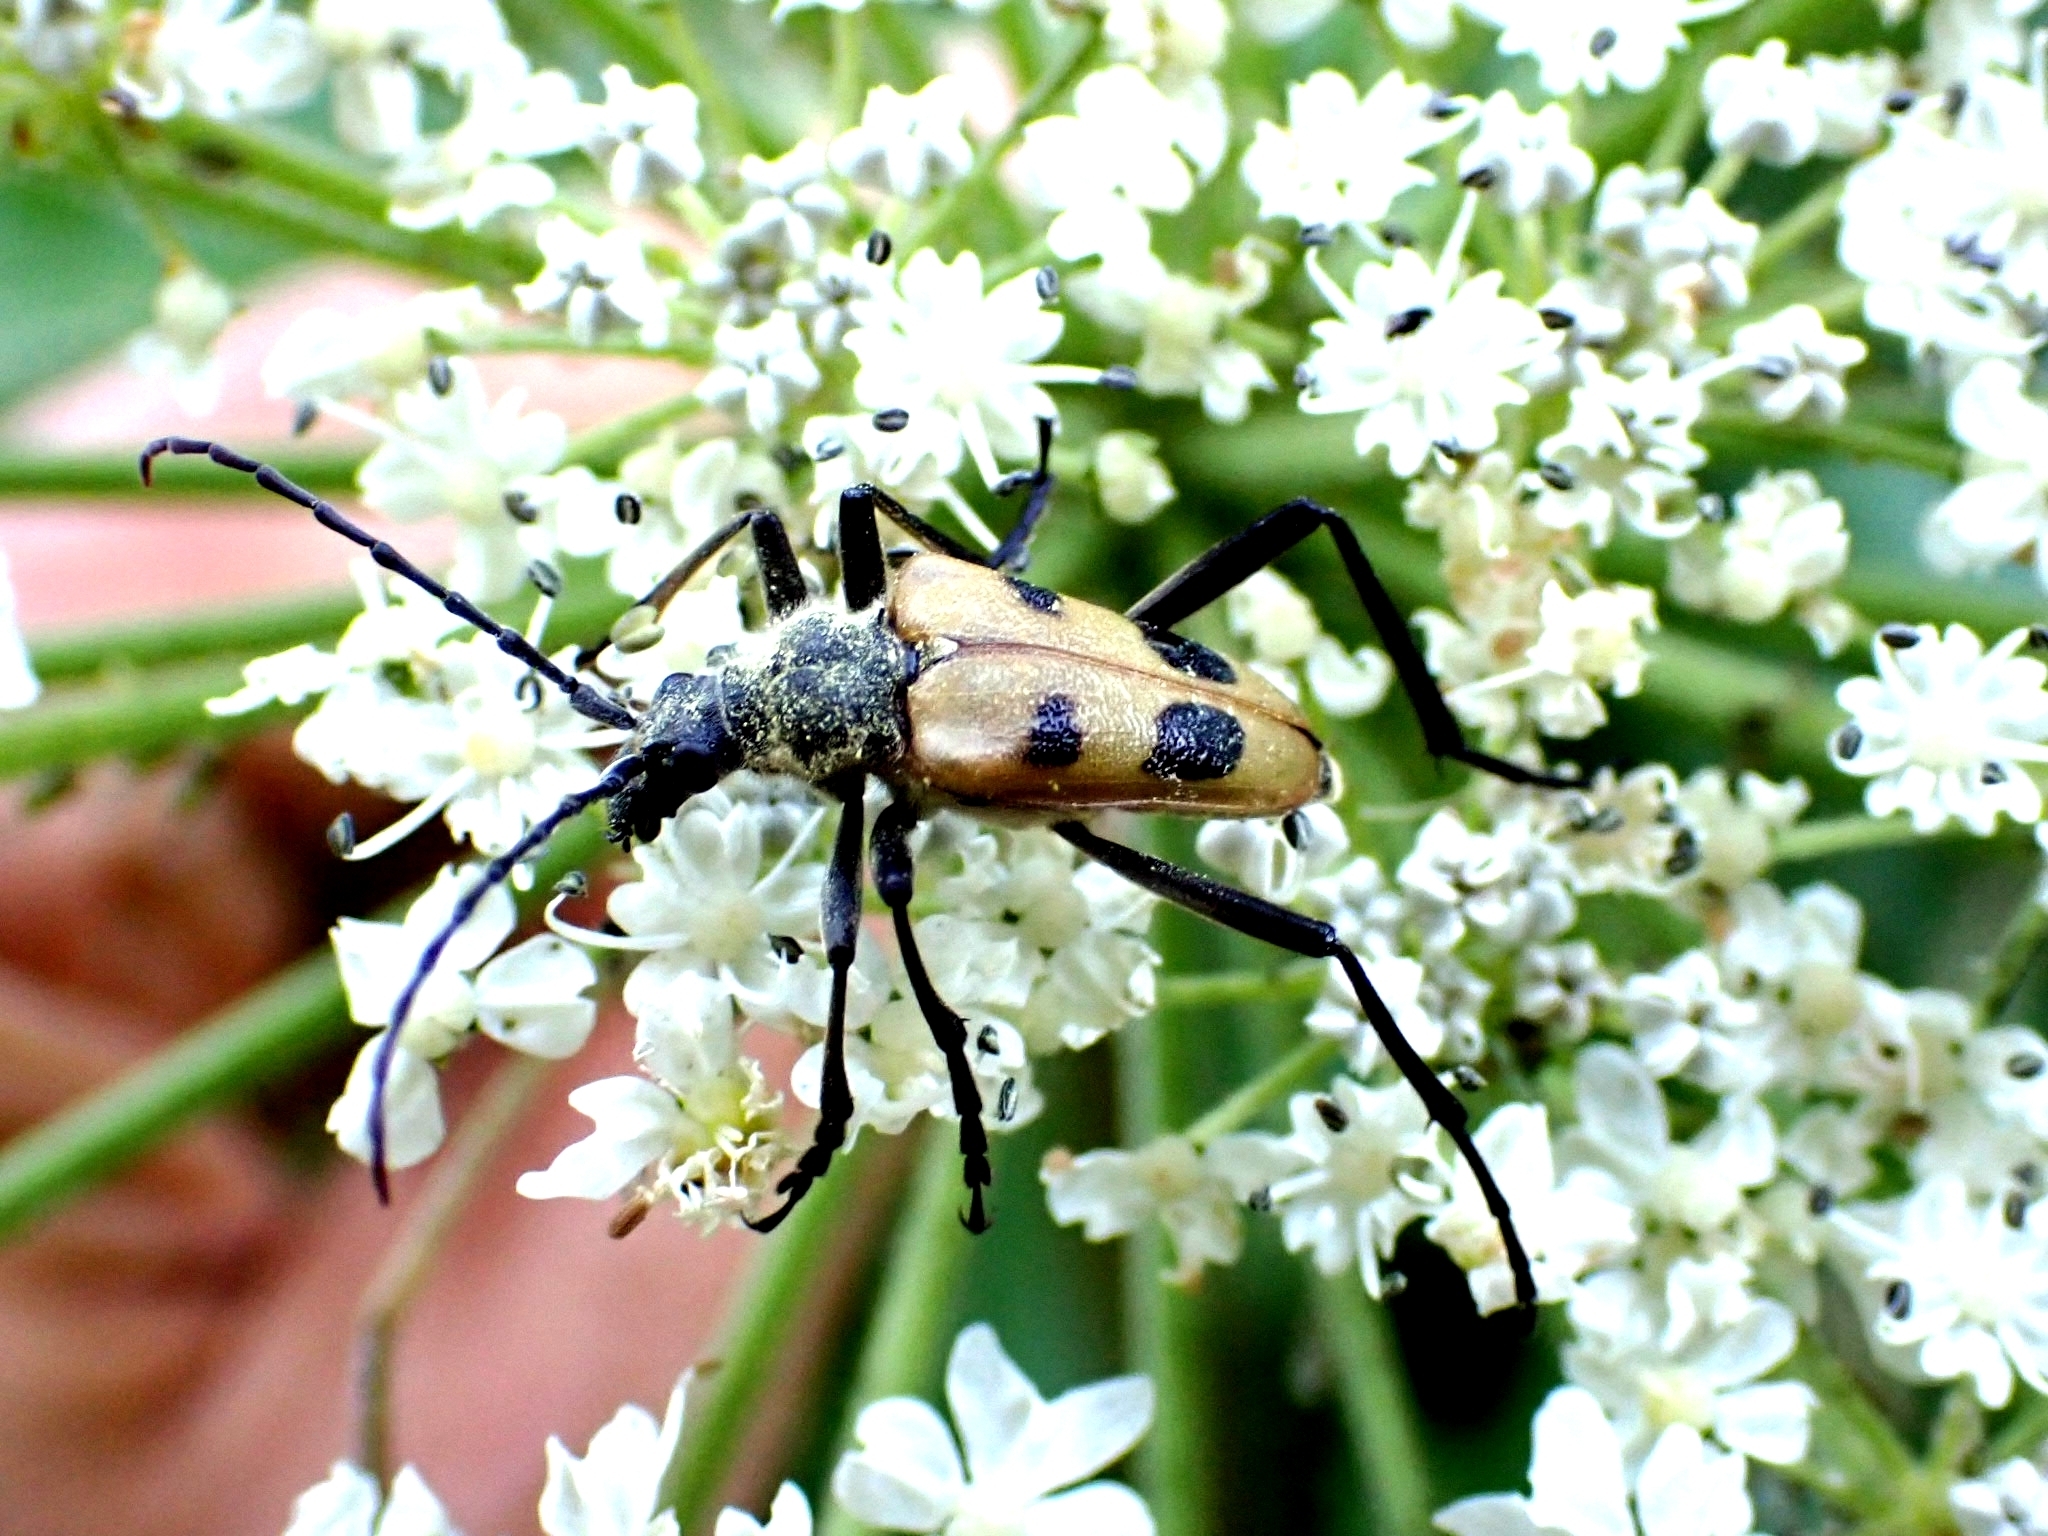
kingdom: Animalia
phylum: Arthropoda
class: Insecta
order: Coleoptera
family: Cerambycidae
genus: Pachyta
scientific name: Pachyta quadrimaculata
